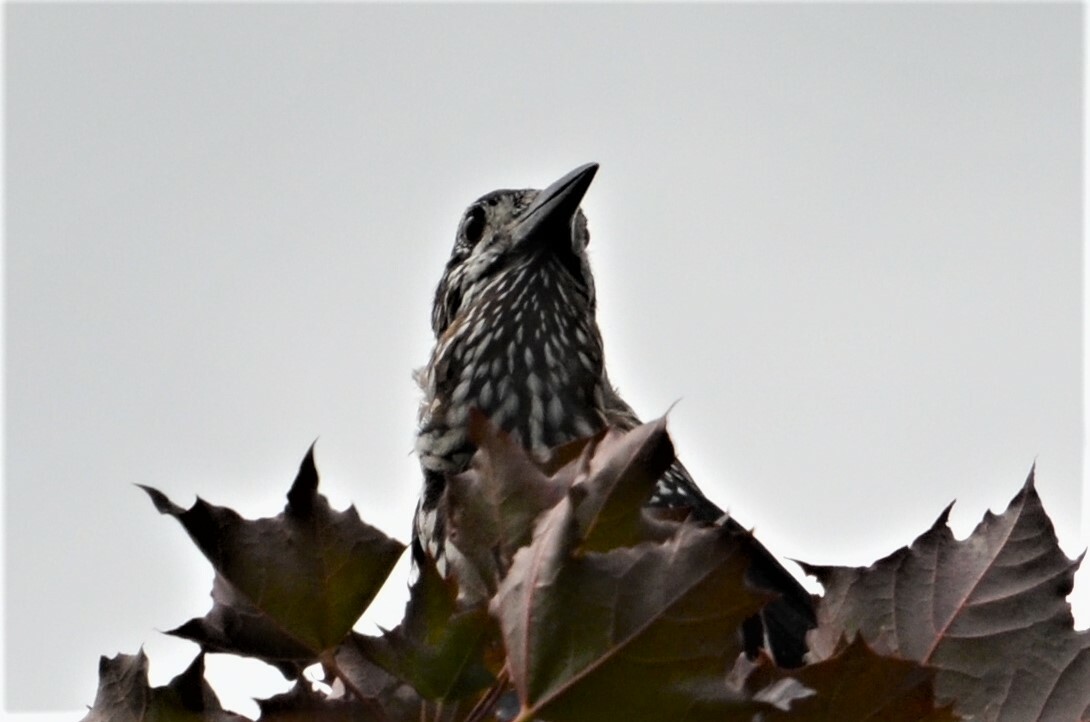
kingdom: Animalia
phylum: Chordata
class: Aves
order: Passeriformes
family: Corvidae
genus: Nucifraga
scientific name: Nucifraga caryocatactes
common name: Spotted nutcracker
